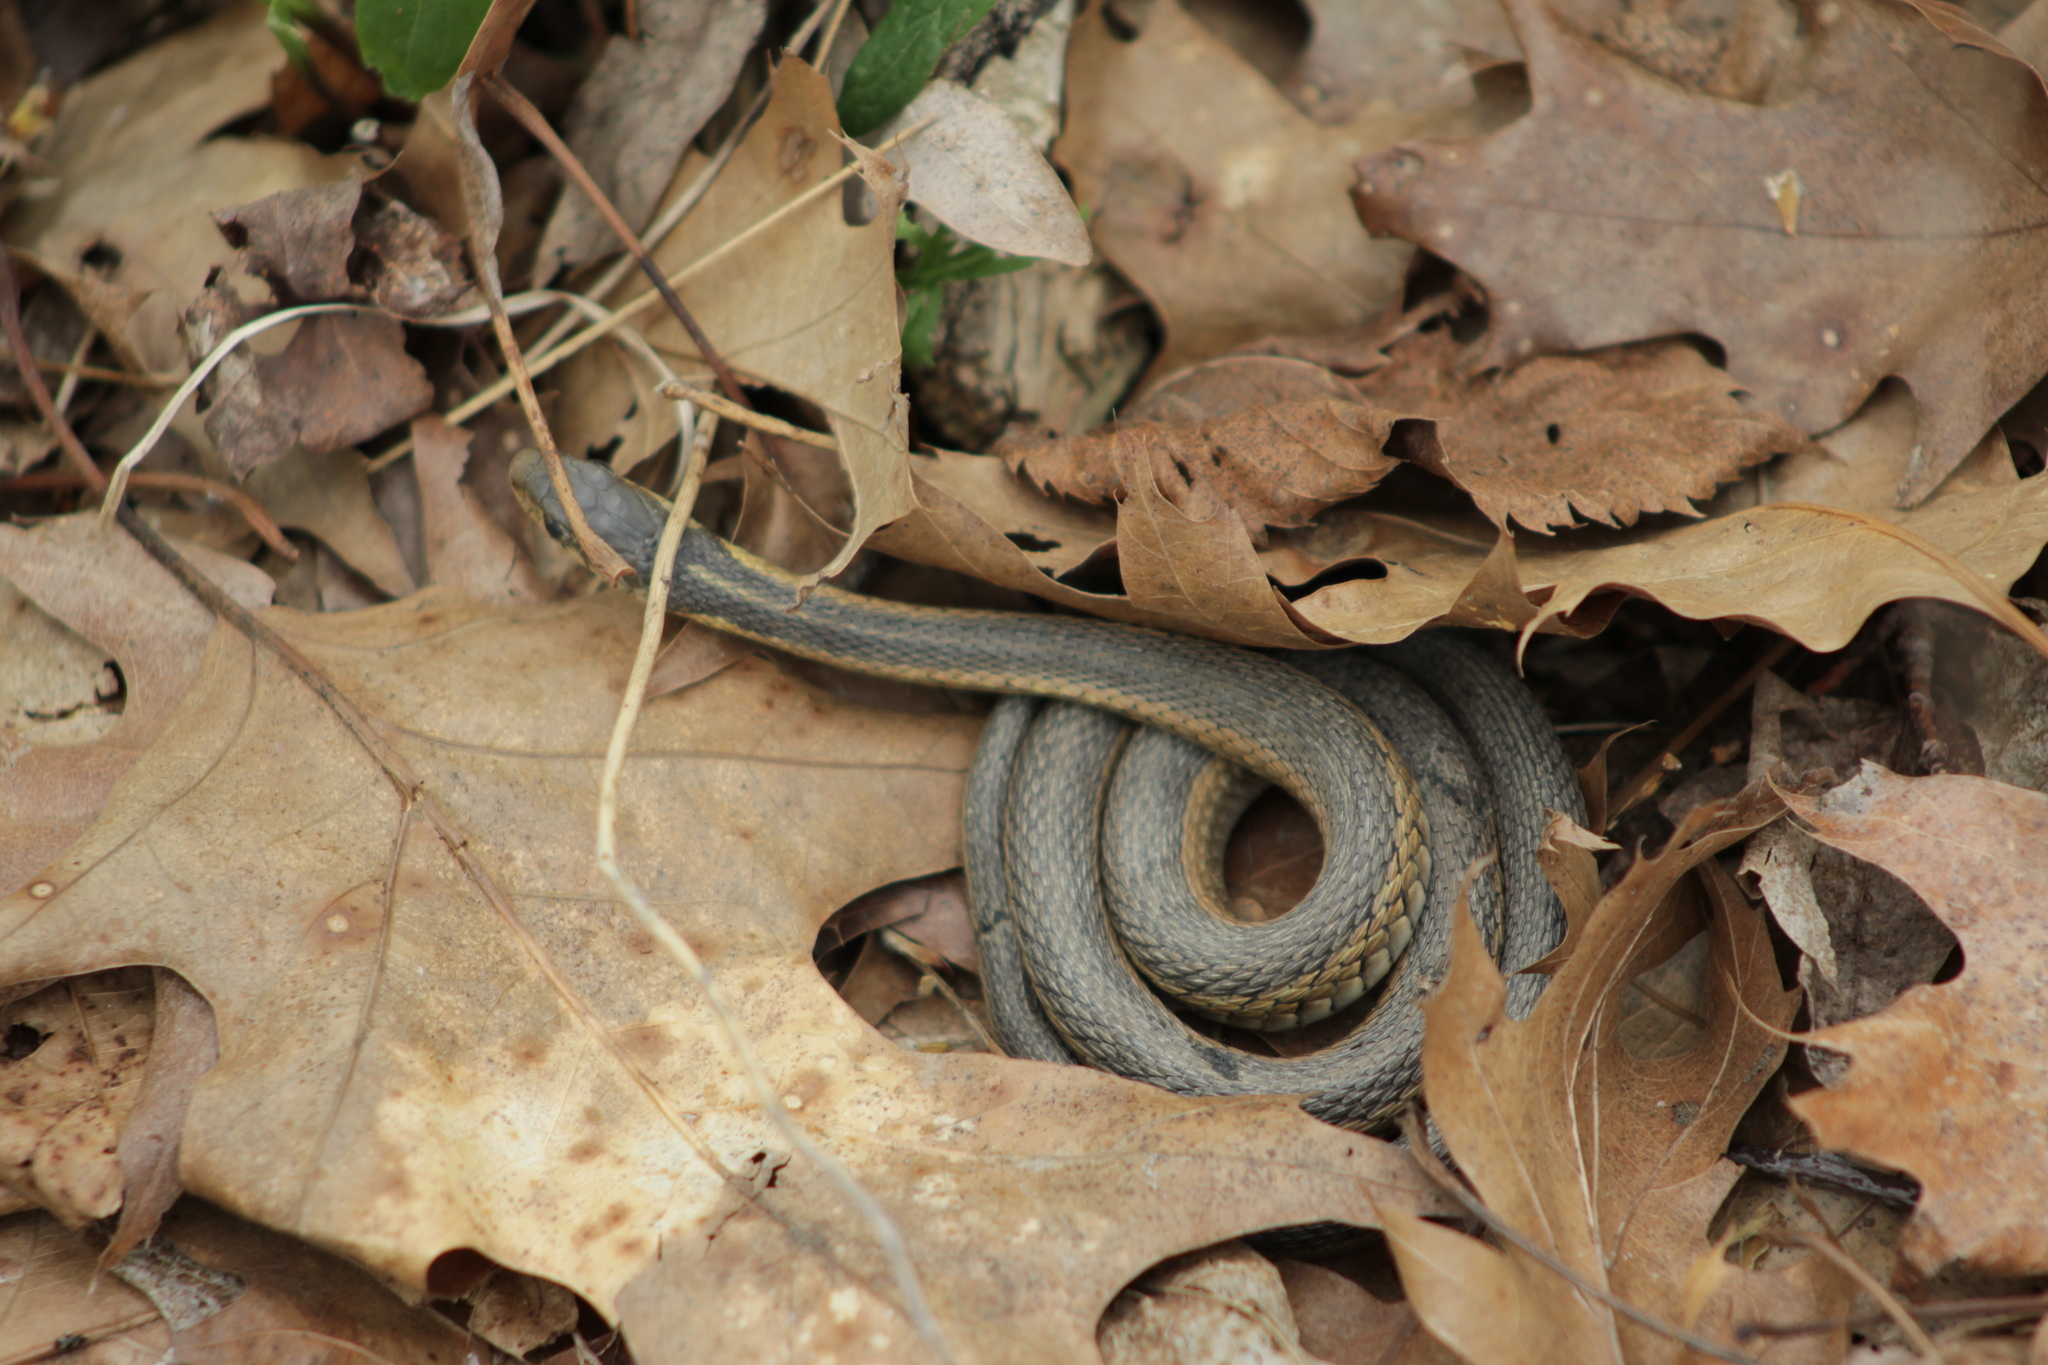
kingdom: Animalia
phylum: Chordata
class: Squamata
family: Colubridae
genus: Thamnophis
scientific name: Thamnophis sirtalis
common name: Common garter snake
